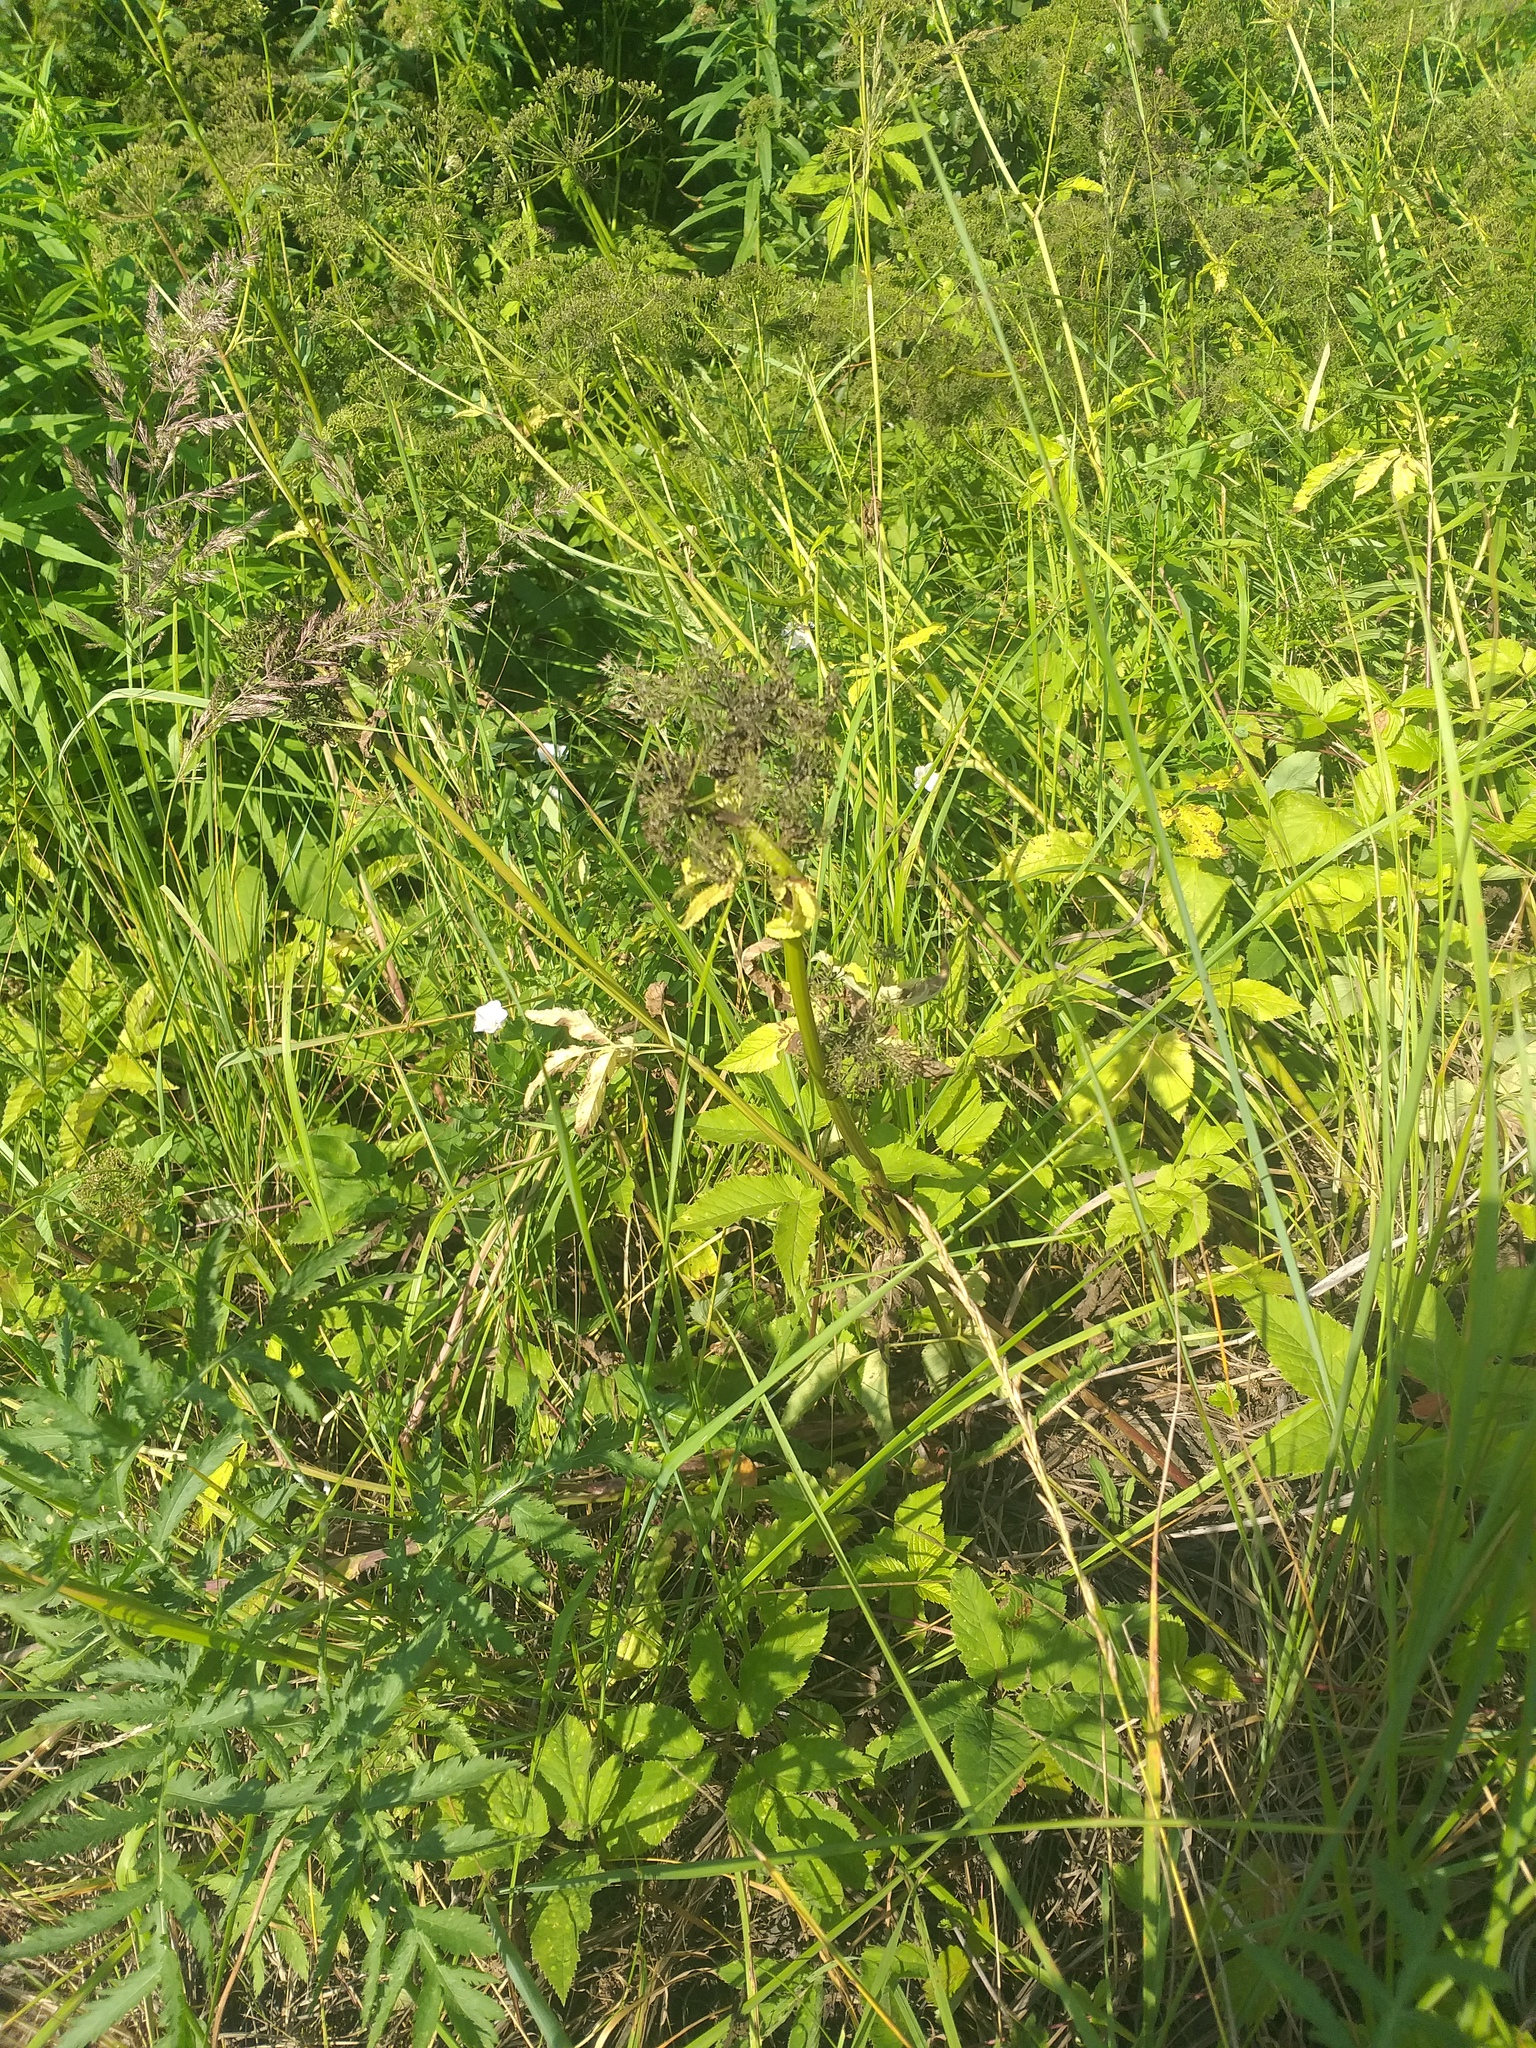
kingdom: Plantae
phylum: Tracheophyta
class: Magnoliopsida
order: Apiales
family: Apiaceae
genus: Aegopodium
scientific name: Aegopodium podagraria
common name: Ground-elder
